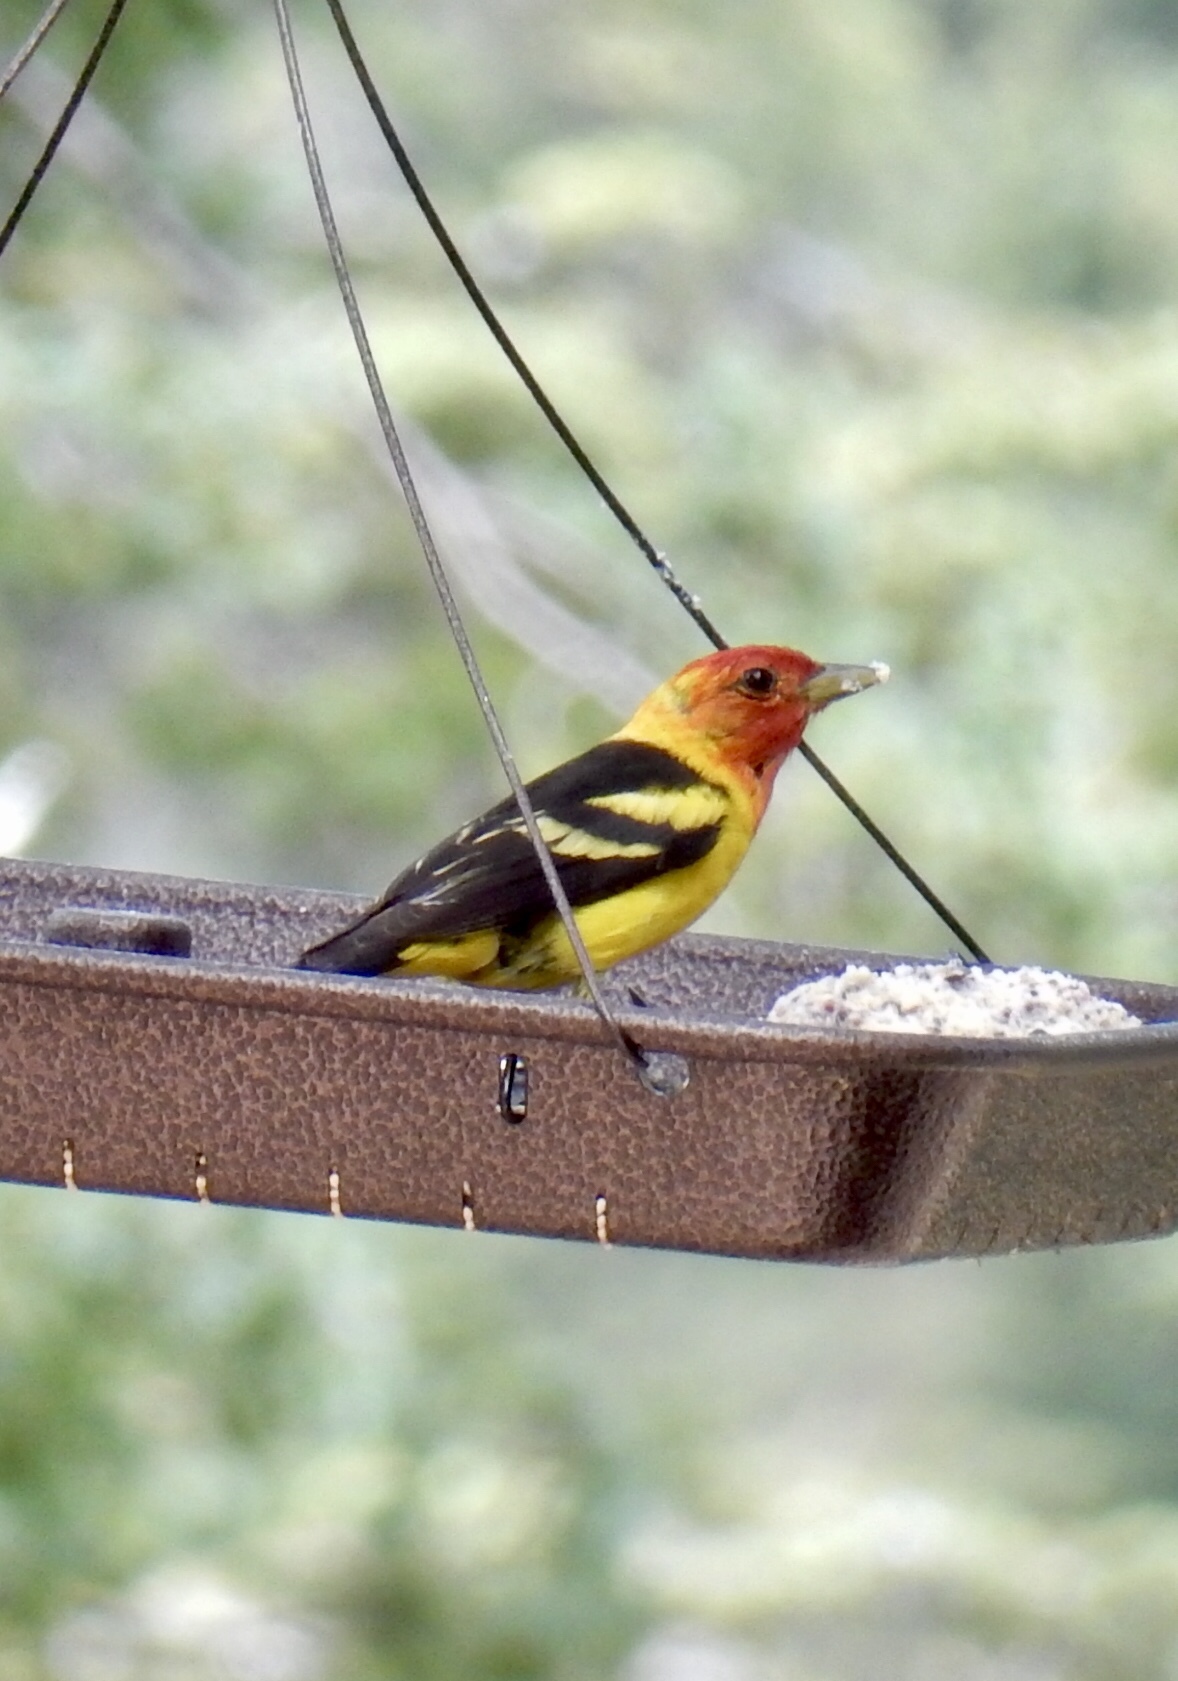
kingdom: Animalia
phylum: Chordata
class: Aves
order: Passeriformes
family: Cardinalidae
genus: Piranga
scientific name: Piranga ludoviciana
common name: Western tanager
